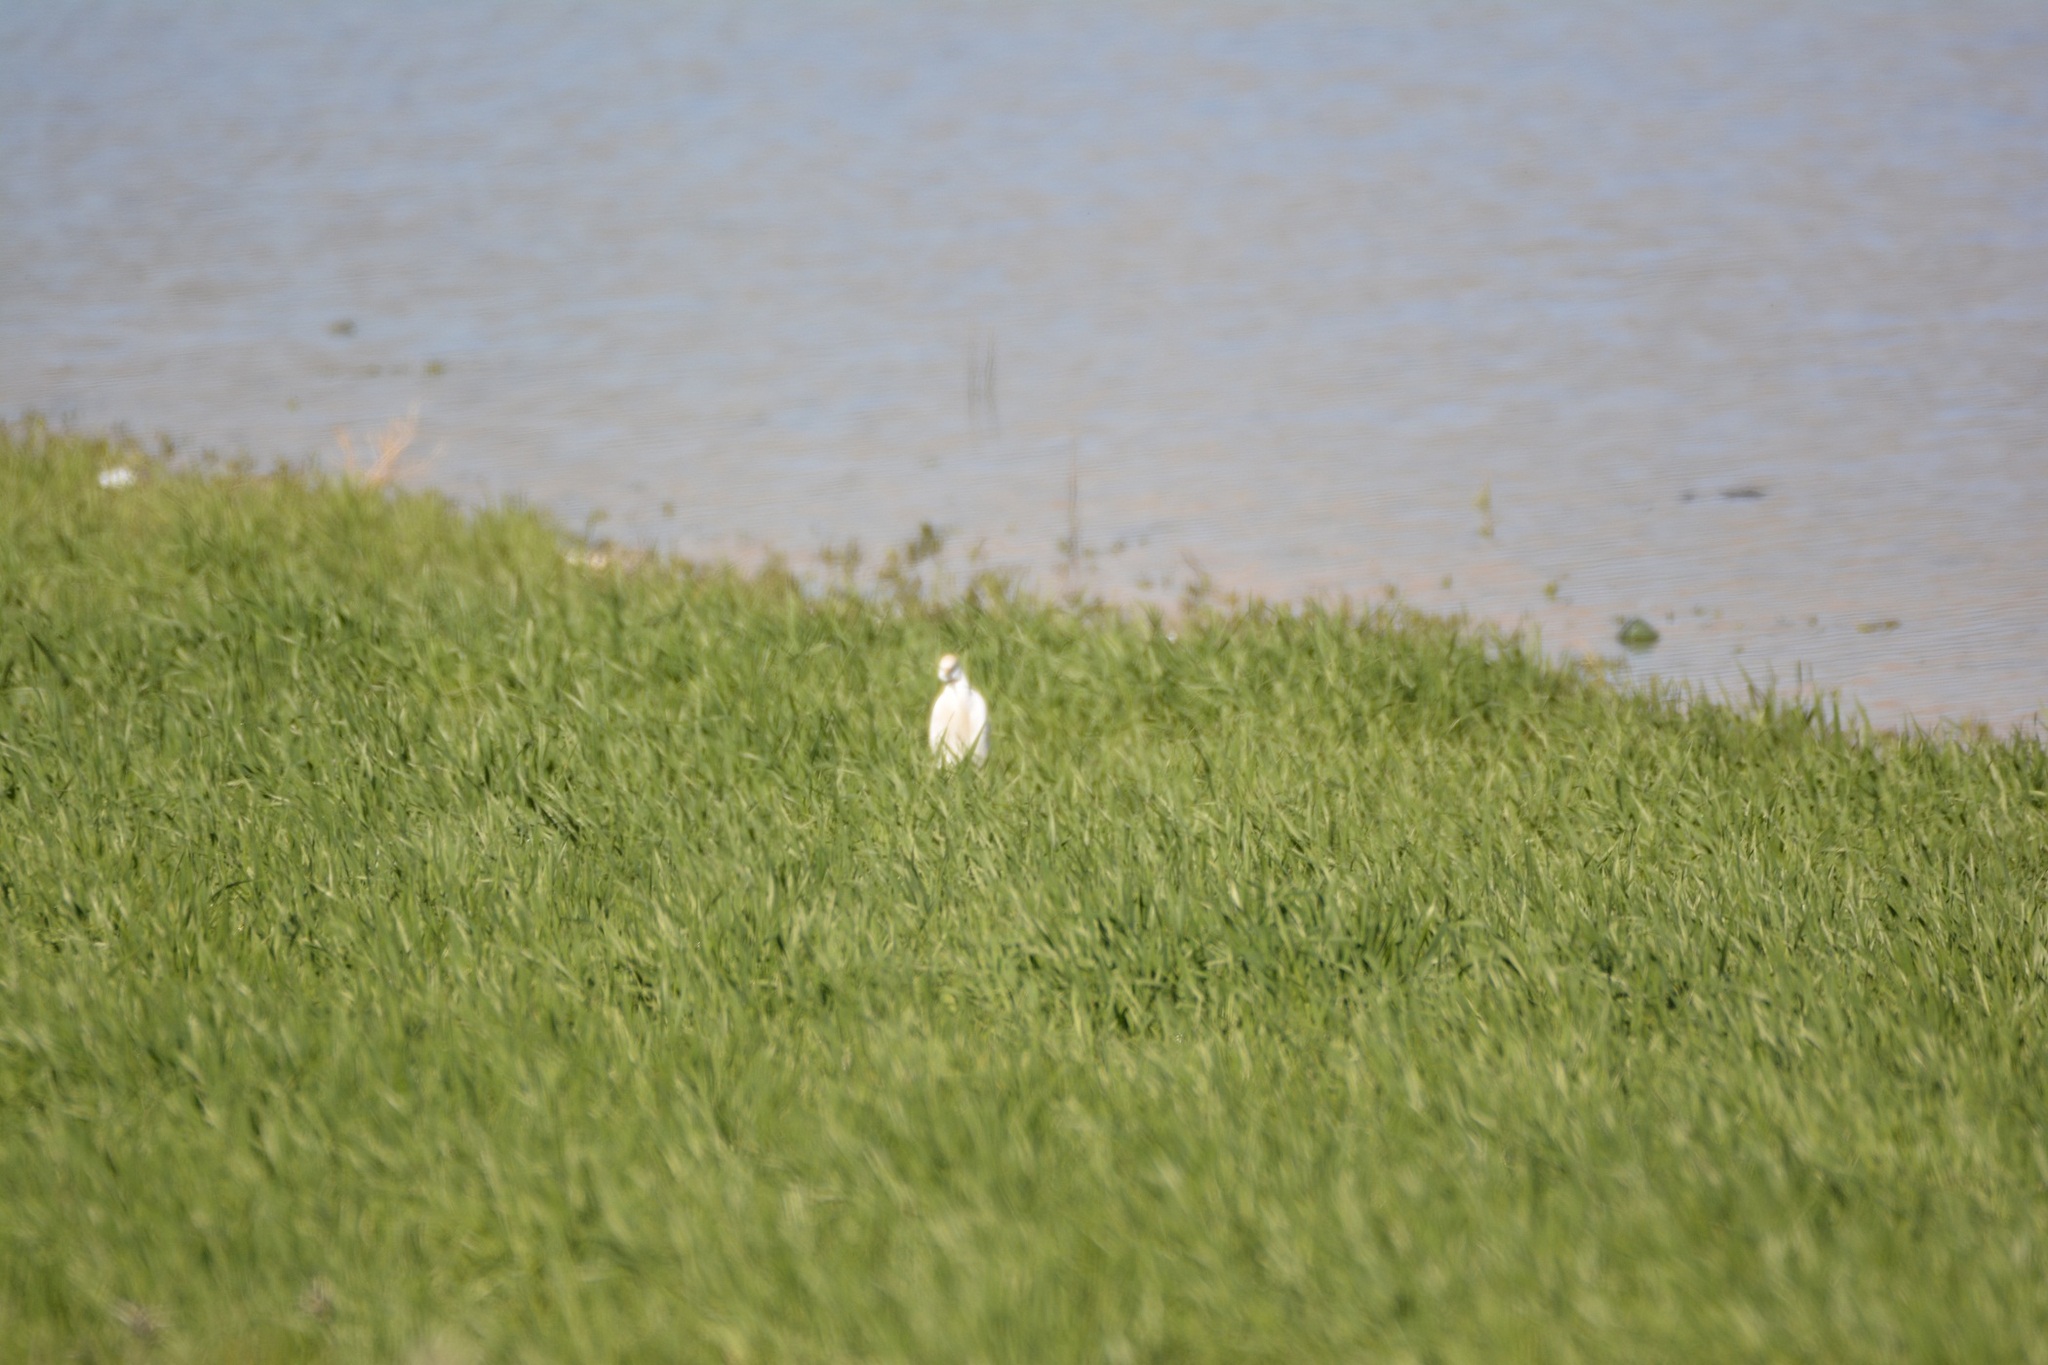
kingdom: Animalia
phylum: Chordata
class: Aves
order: Pelecaniformes
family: Ardeidae
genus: Bubulcus
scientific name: Bubulcus ibis
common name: Cattle egret
